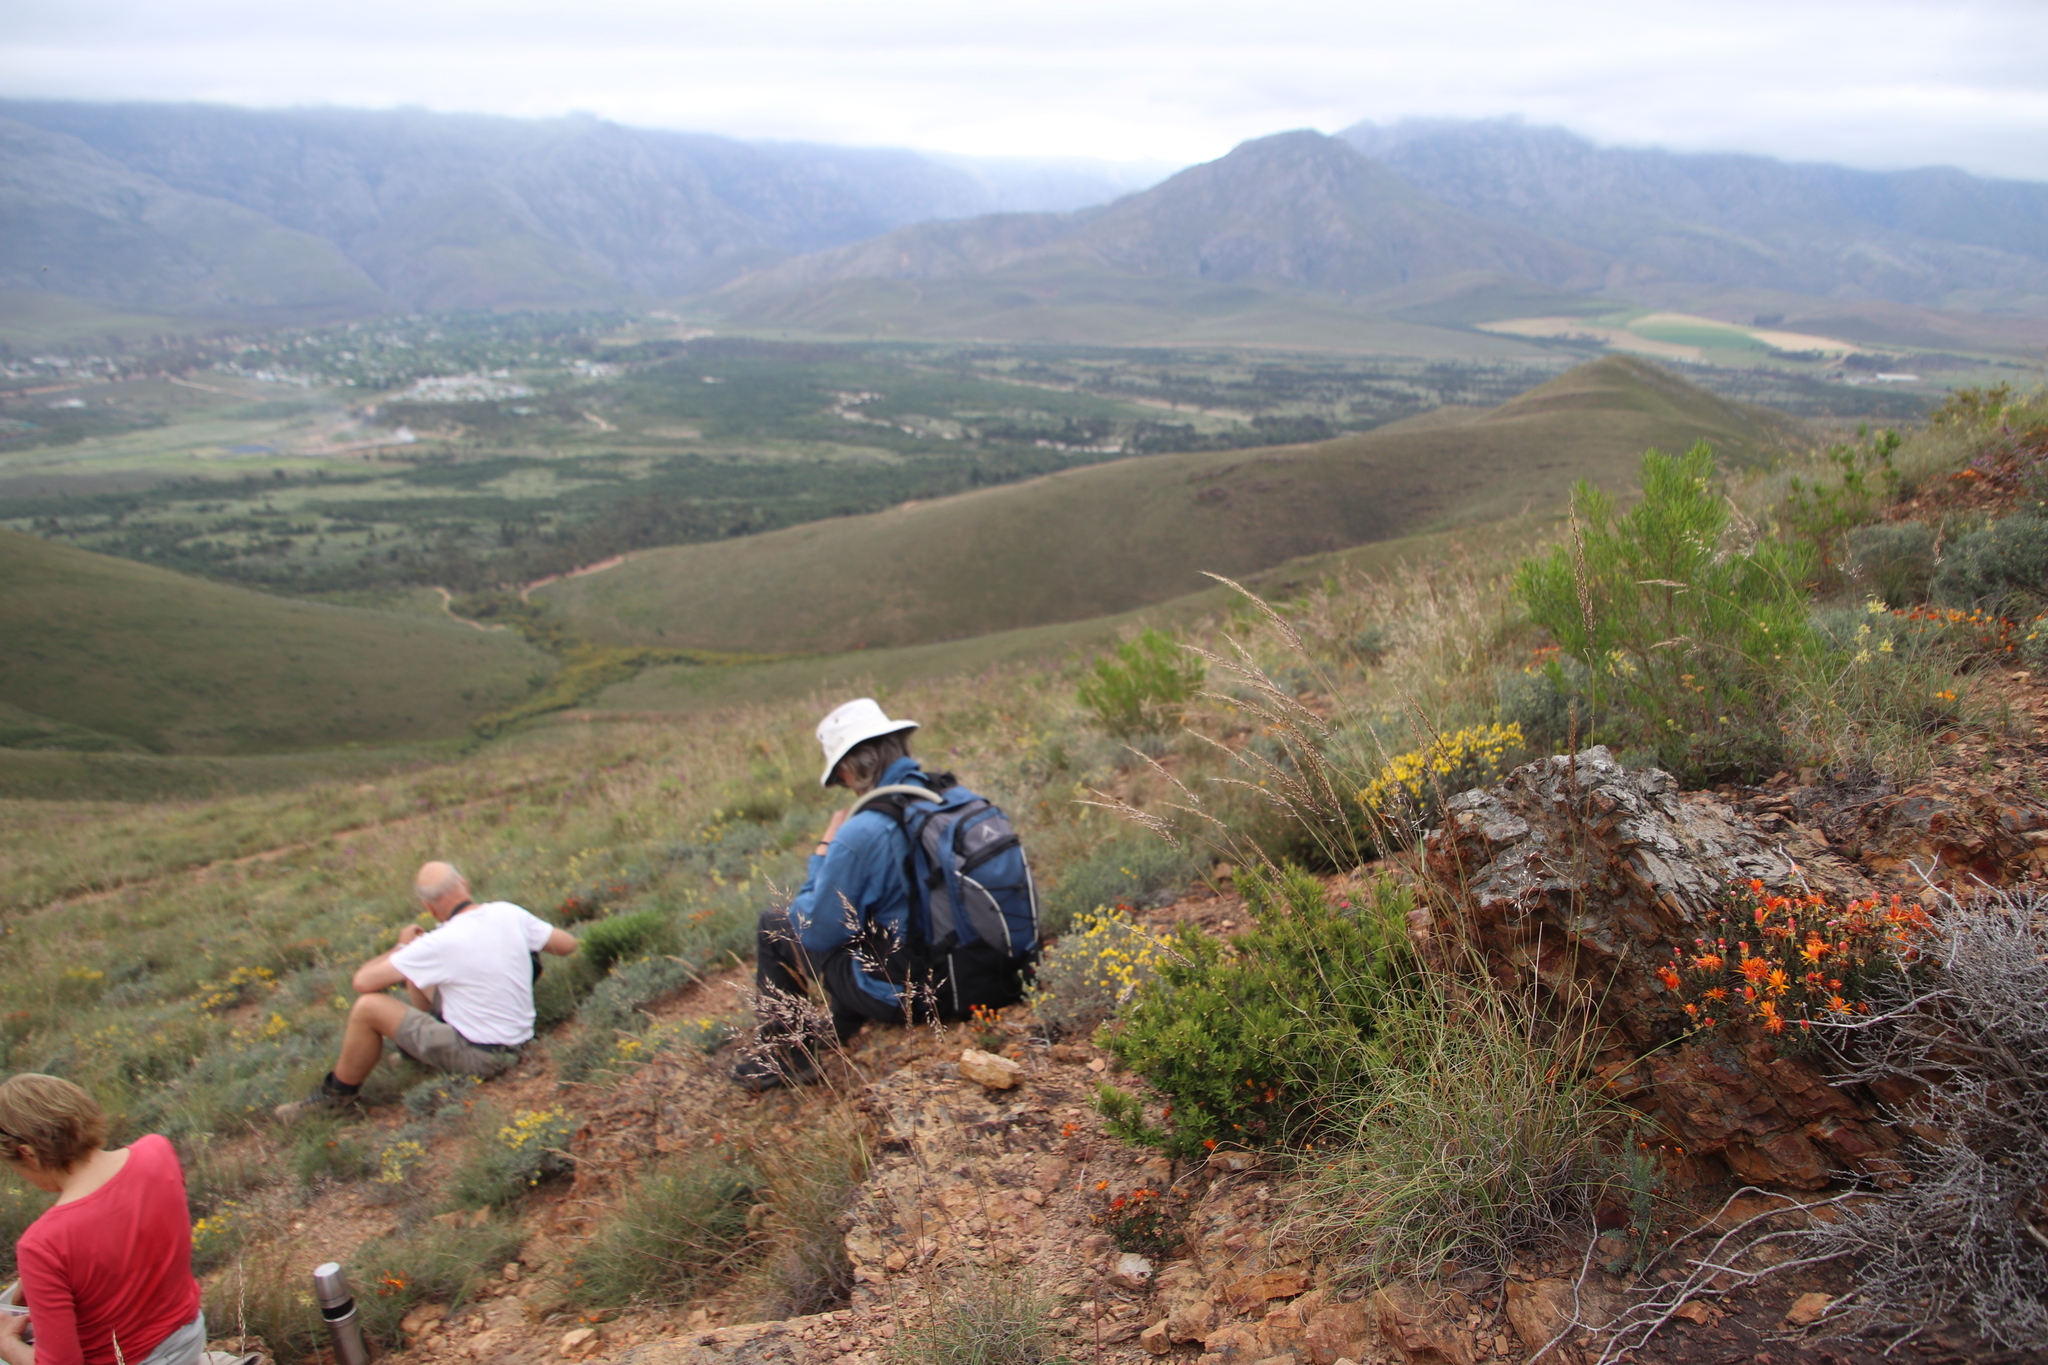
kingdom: Plantae
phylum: Tracheophyta
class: Magnoliopsida
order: Ericales
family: Ebenaceae
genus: Diospyros
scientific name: Diospyros glabra
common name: Fynbos star apple
